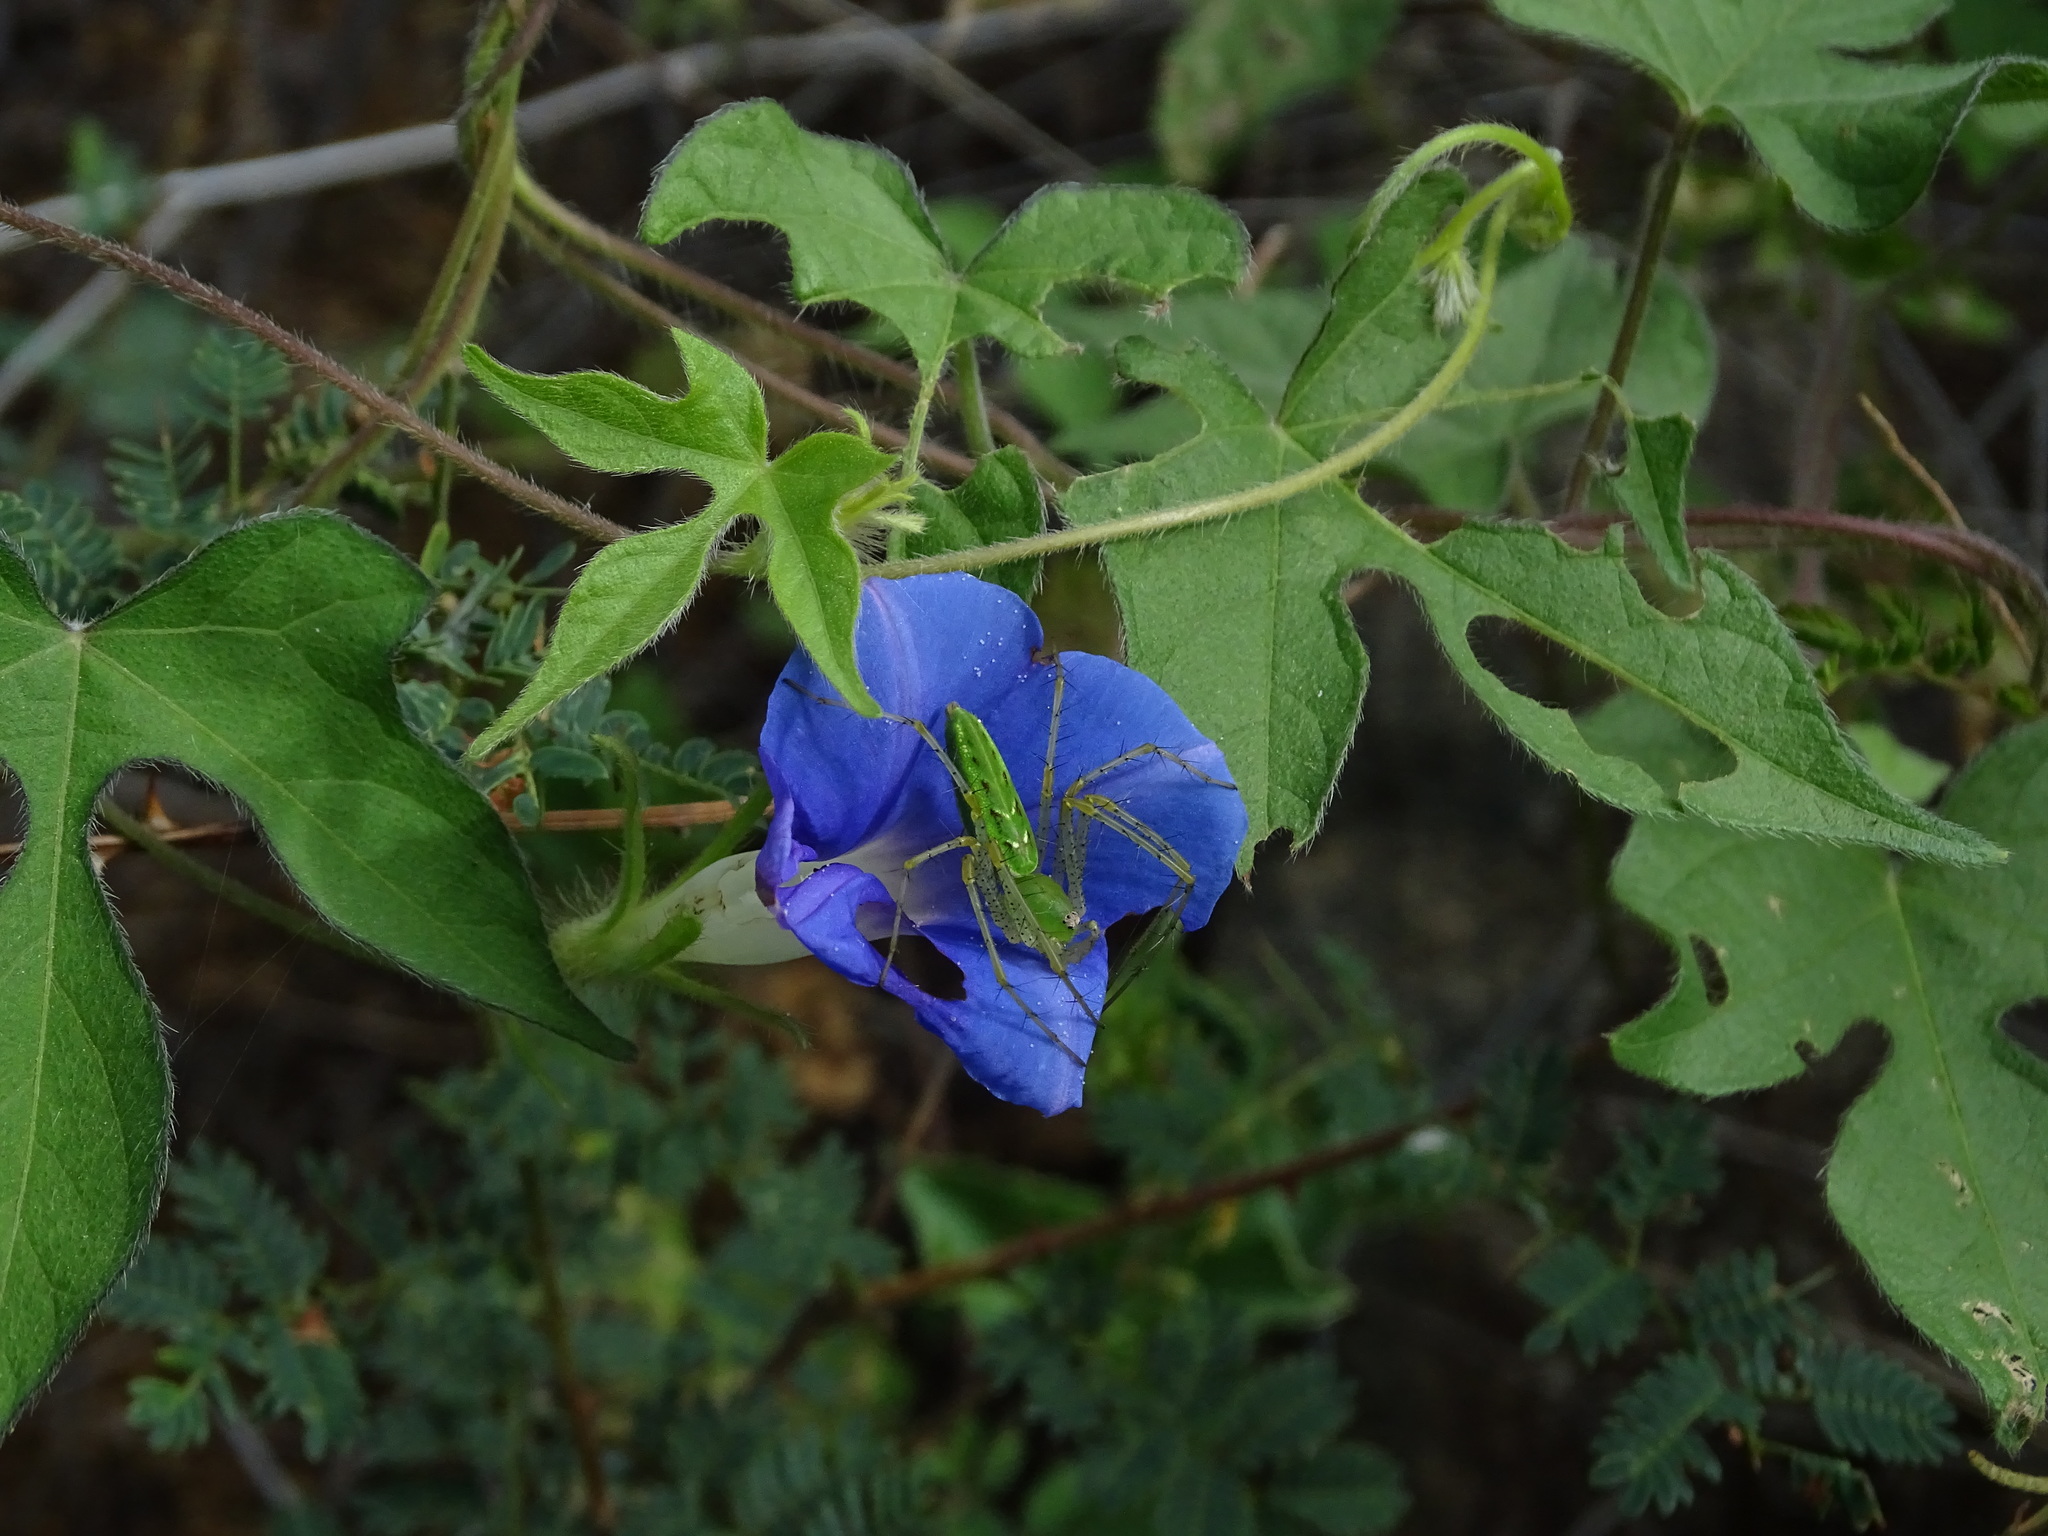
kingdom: Animalia
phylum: Arthropoda
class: Arachnida
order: Araneae
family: Oxyopidae
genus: Peucetia
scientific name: Peucetia viridans
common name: Lynx spiders
